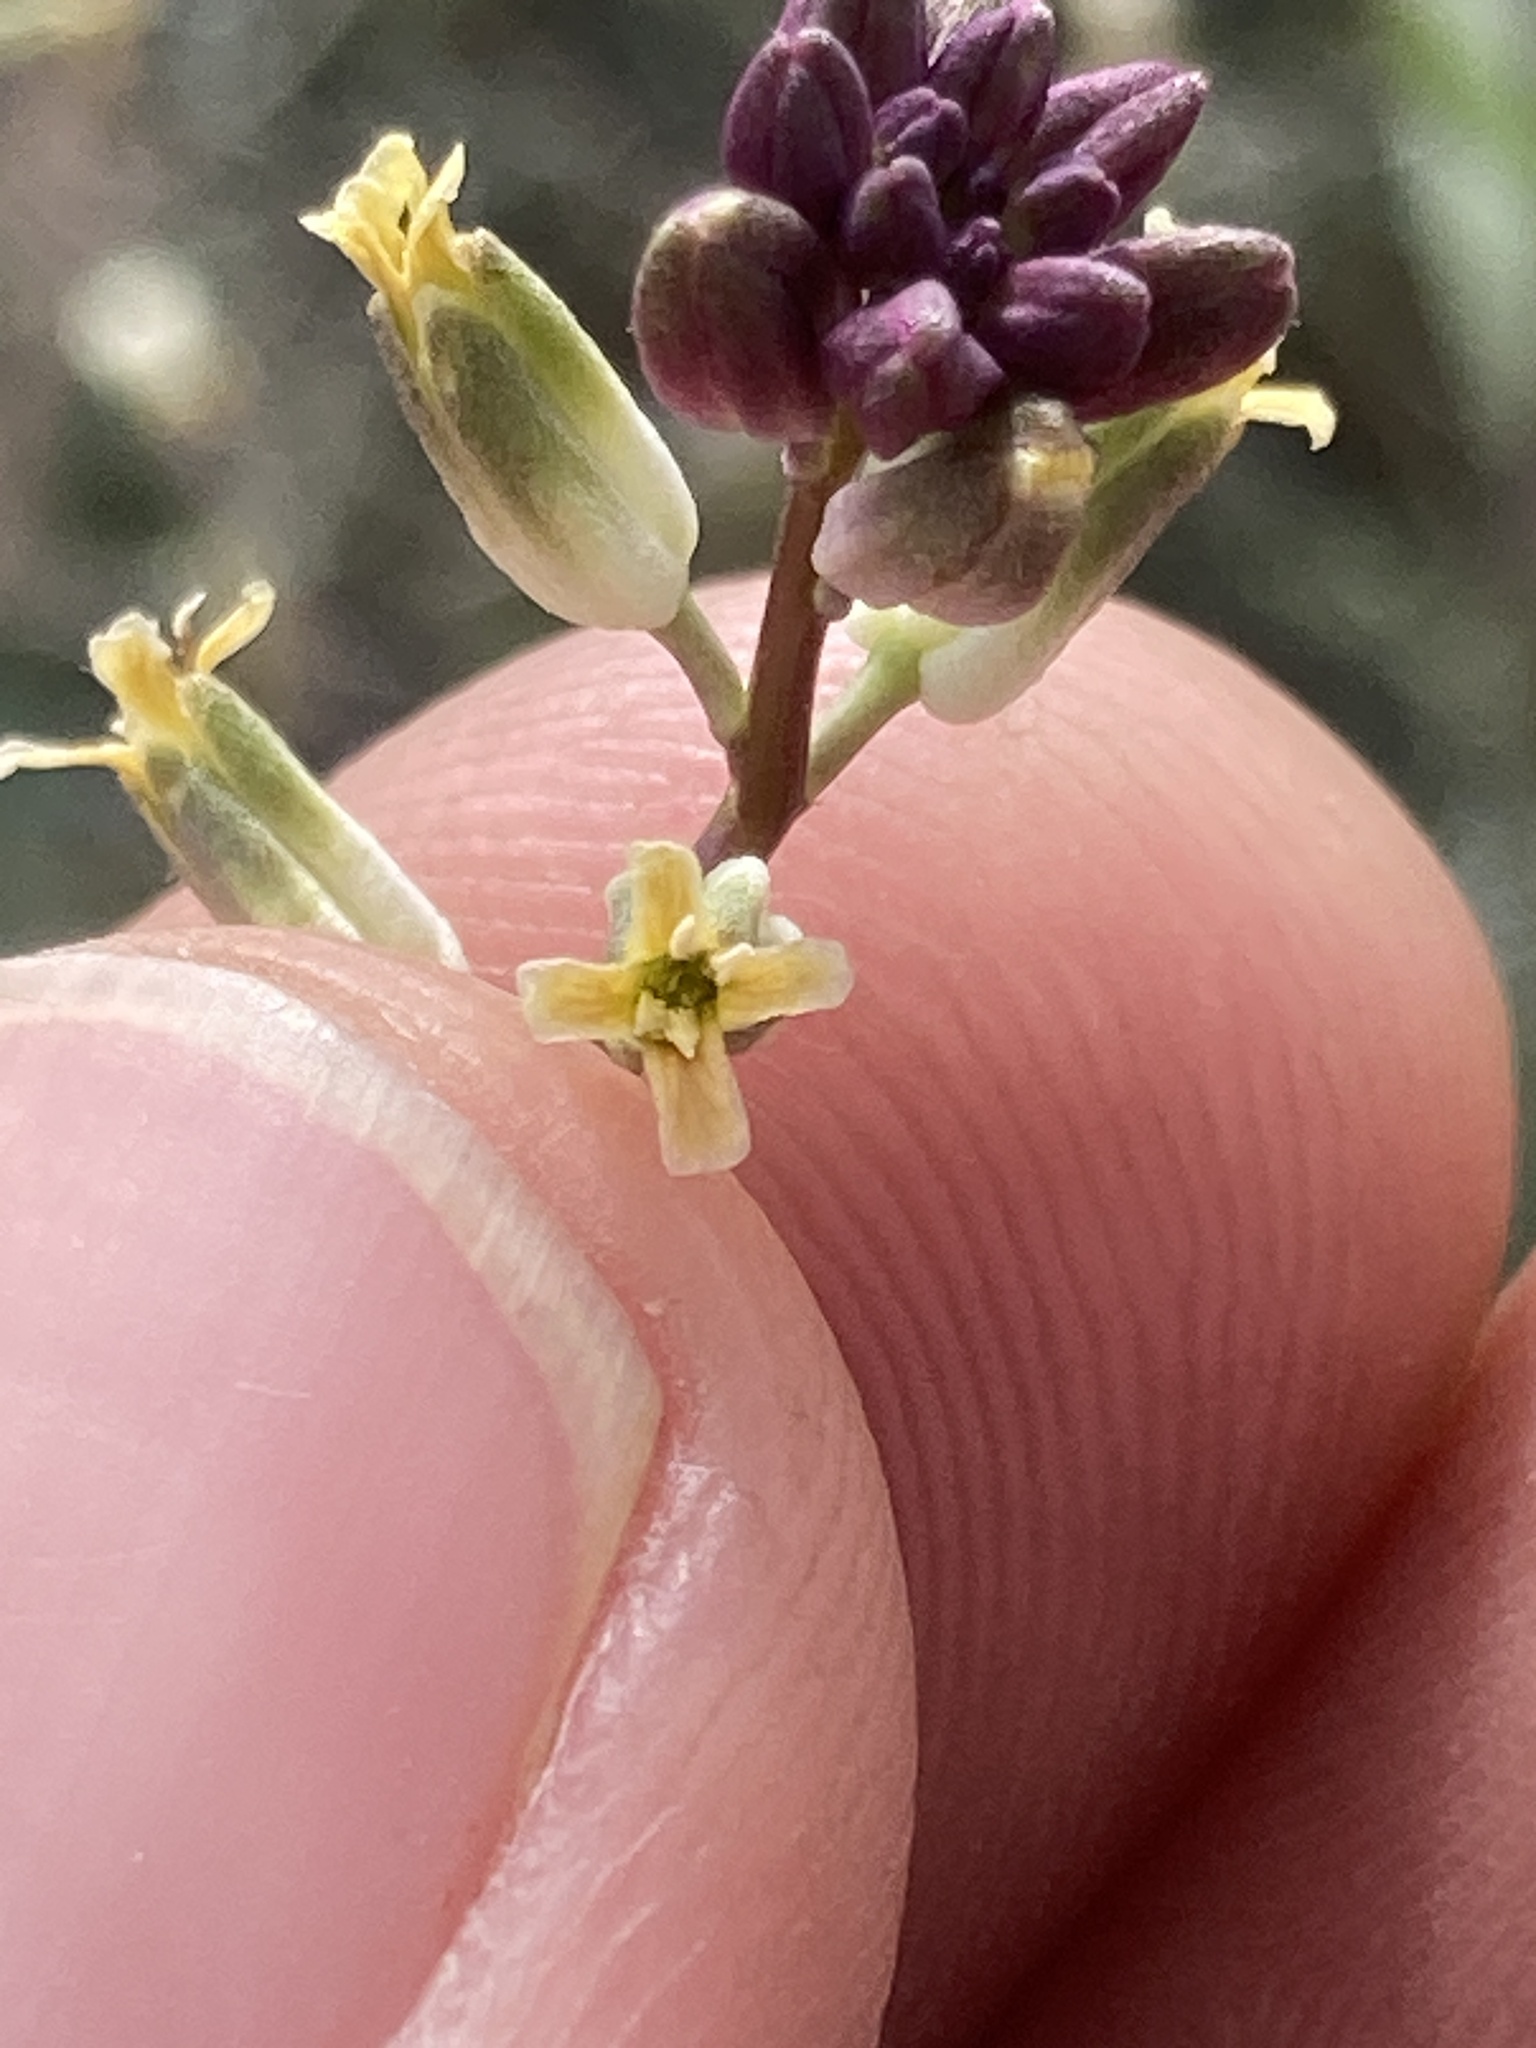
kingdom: Plantae
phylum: Tracheophyta
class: Magnoliopsida
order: Brassicales
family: Brassicaceae
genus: Streptanthus
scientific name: Streptanthus longirostris
